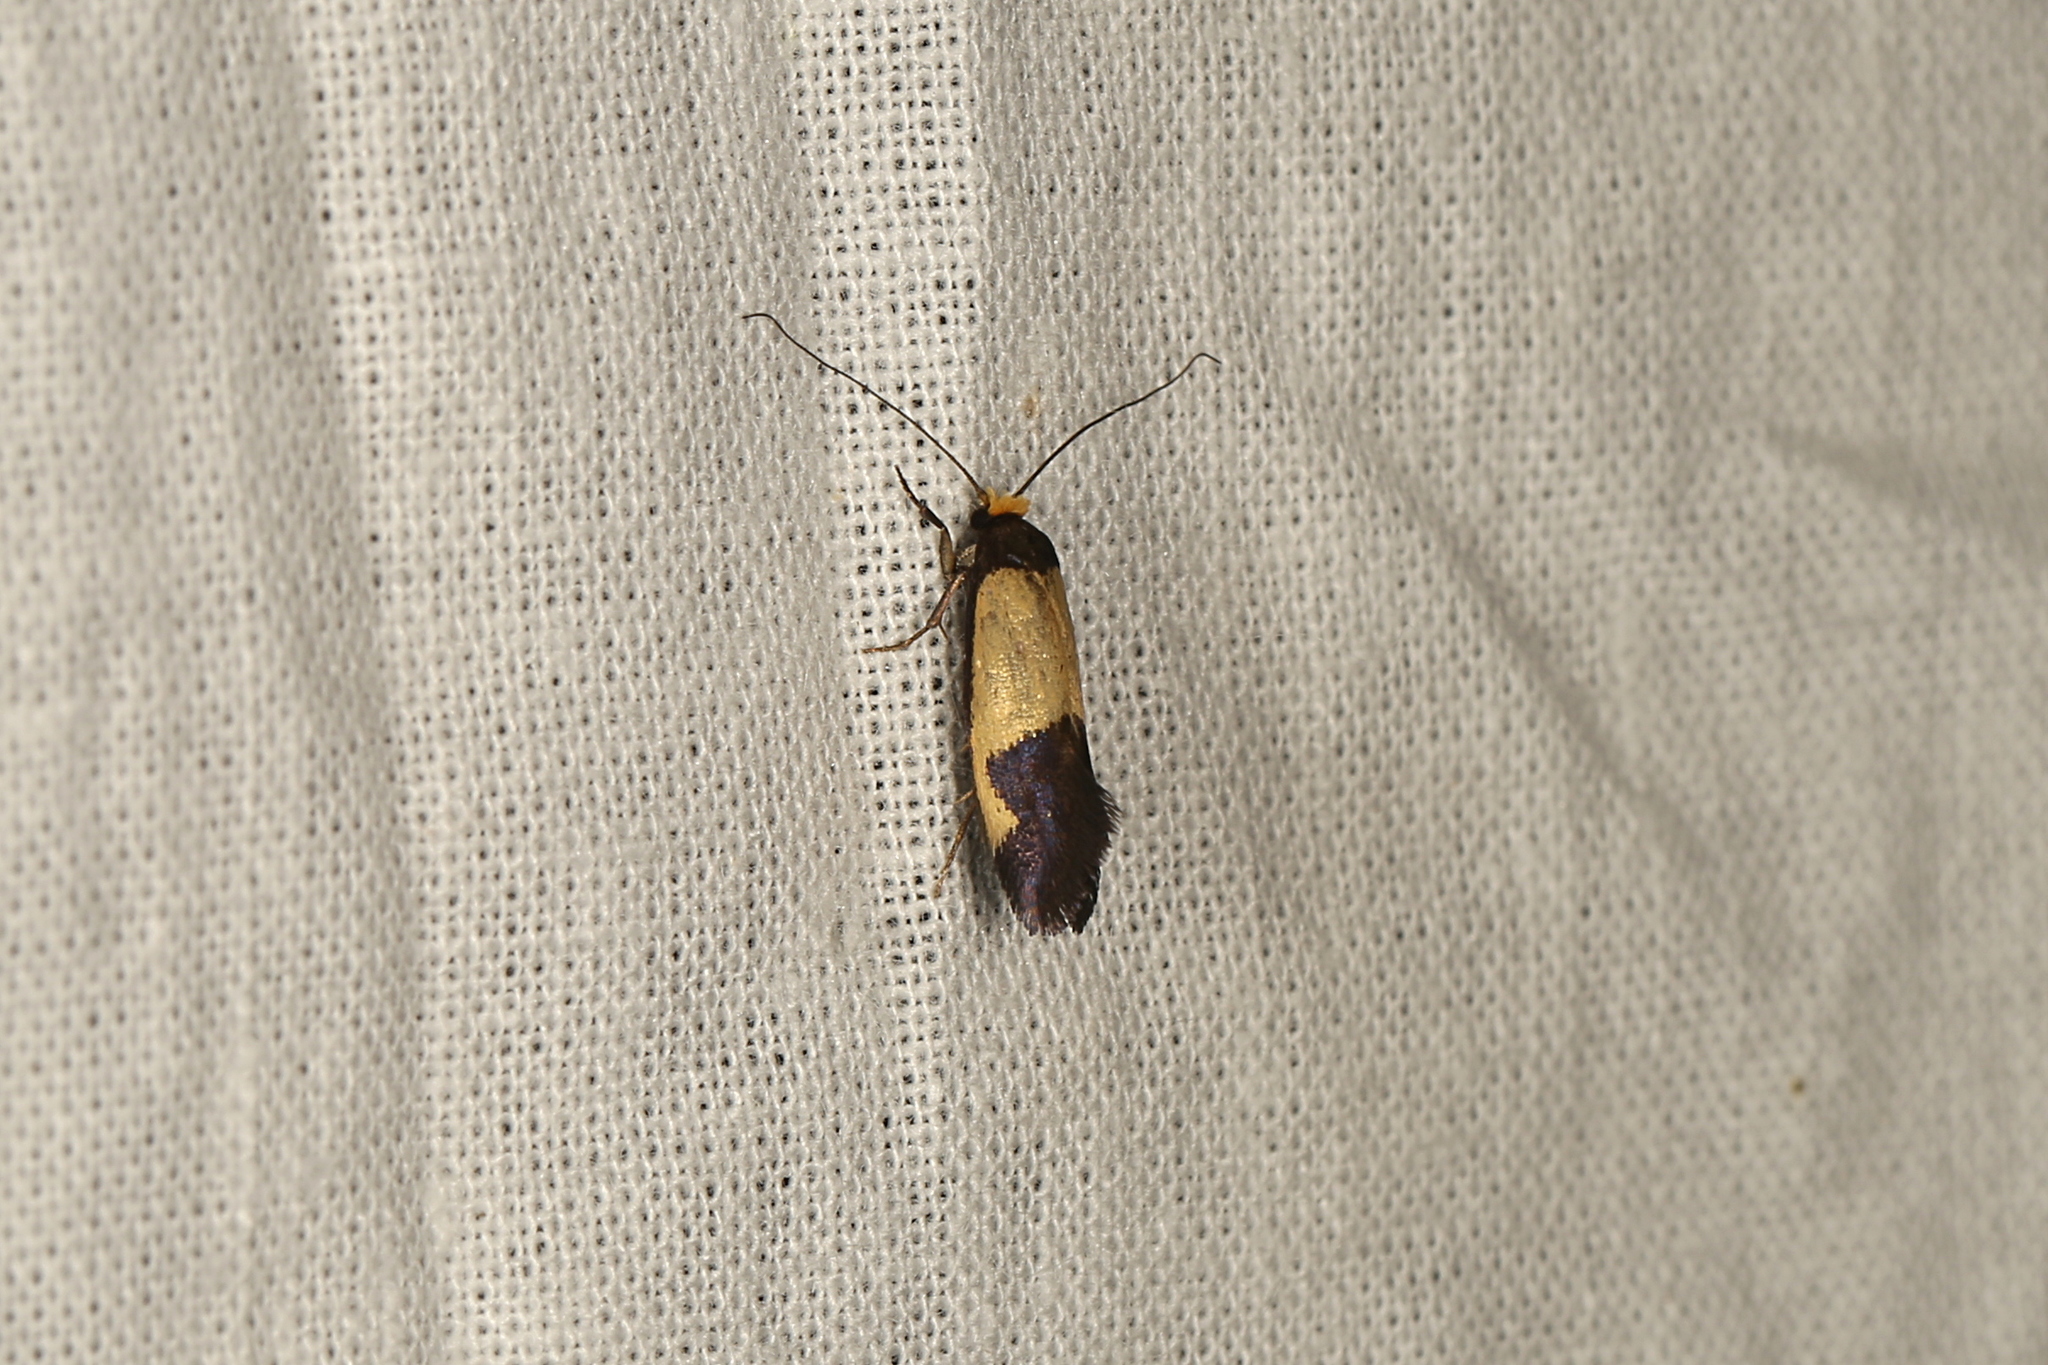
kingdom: Animalia
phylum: Arthropoda
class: Insecta
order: Lepidoptera
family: Tineidae
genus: Edosa
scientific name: Edosa irruptella
